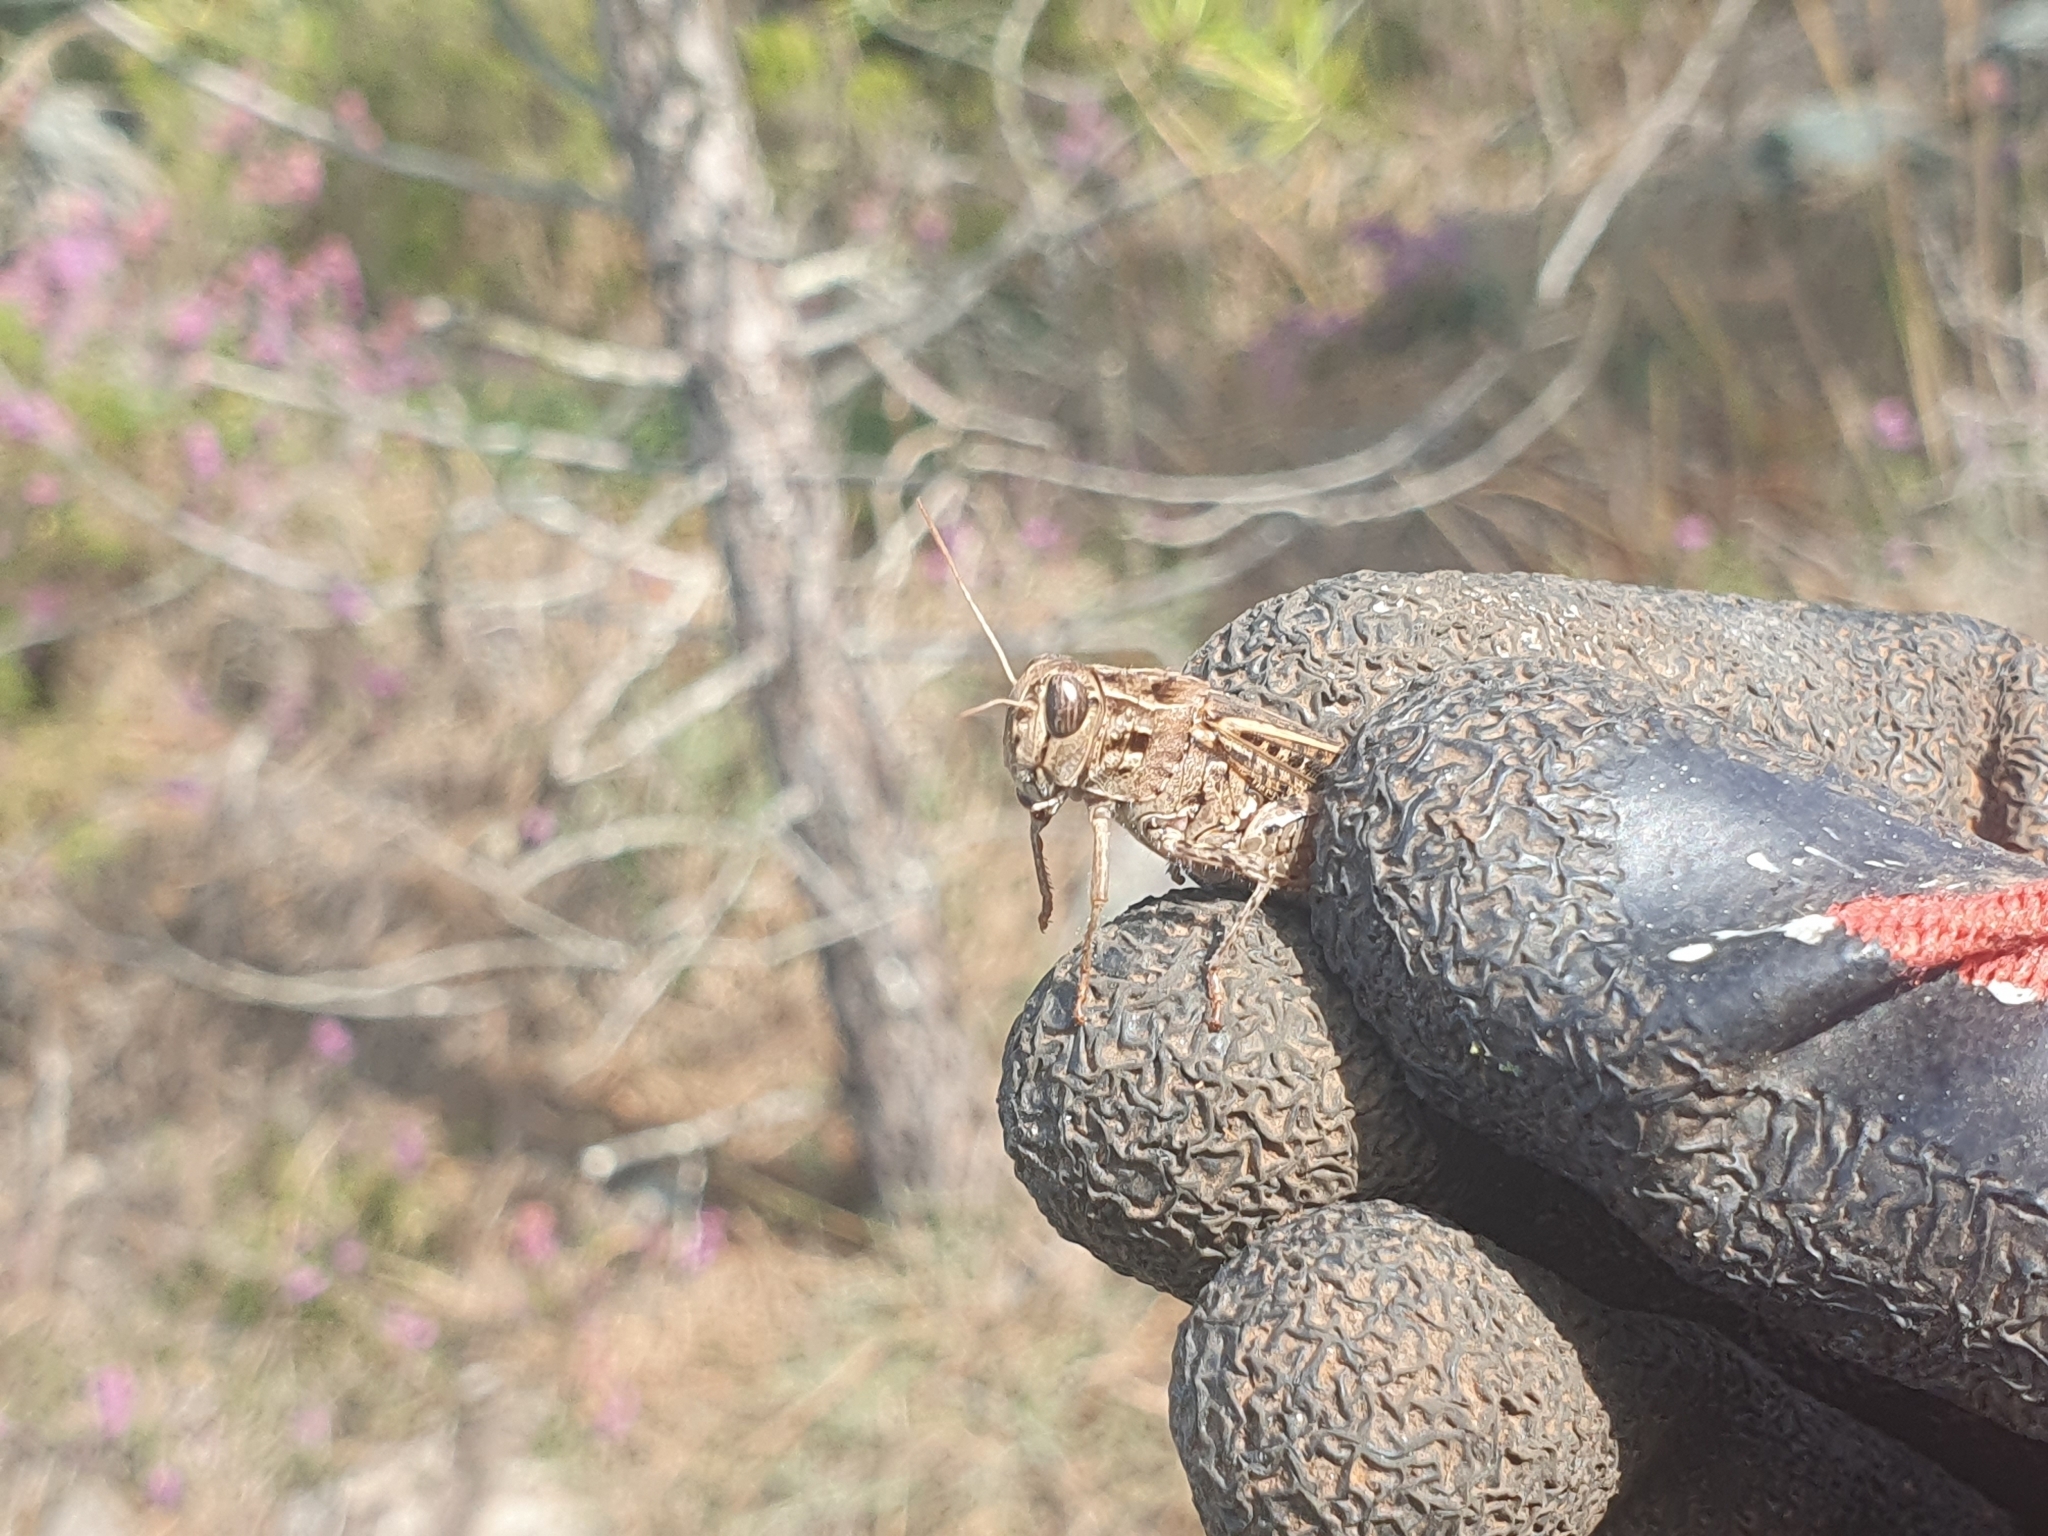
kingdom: Animalia
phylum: Arthropoda
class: Insecta
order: Orthoptera
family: Acrididae
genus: Calliptamus
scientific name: Calliptamus barbarus
